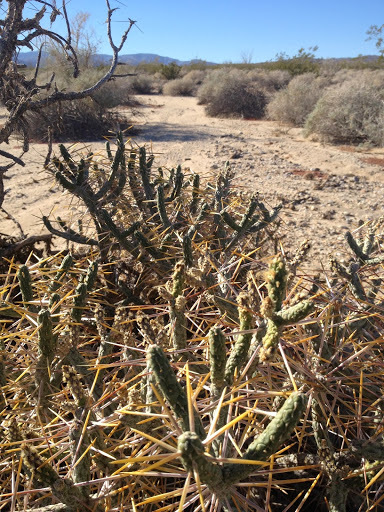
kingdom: Plantae
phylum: Tracheophyta
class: Magnoliopsida
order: Caryophyllales
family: Cactaceae
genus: Cylindropuntia
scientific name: Cylindropuntia ramosissima
